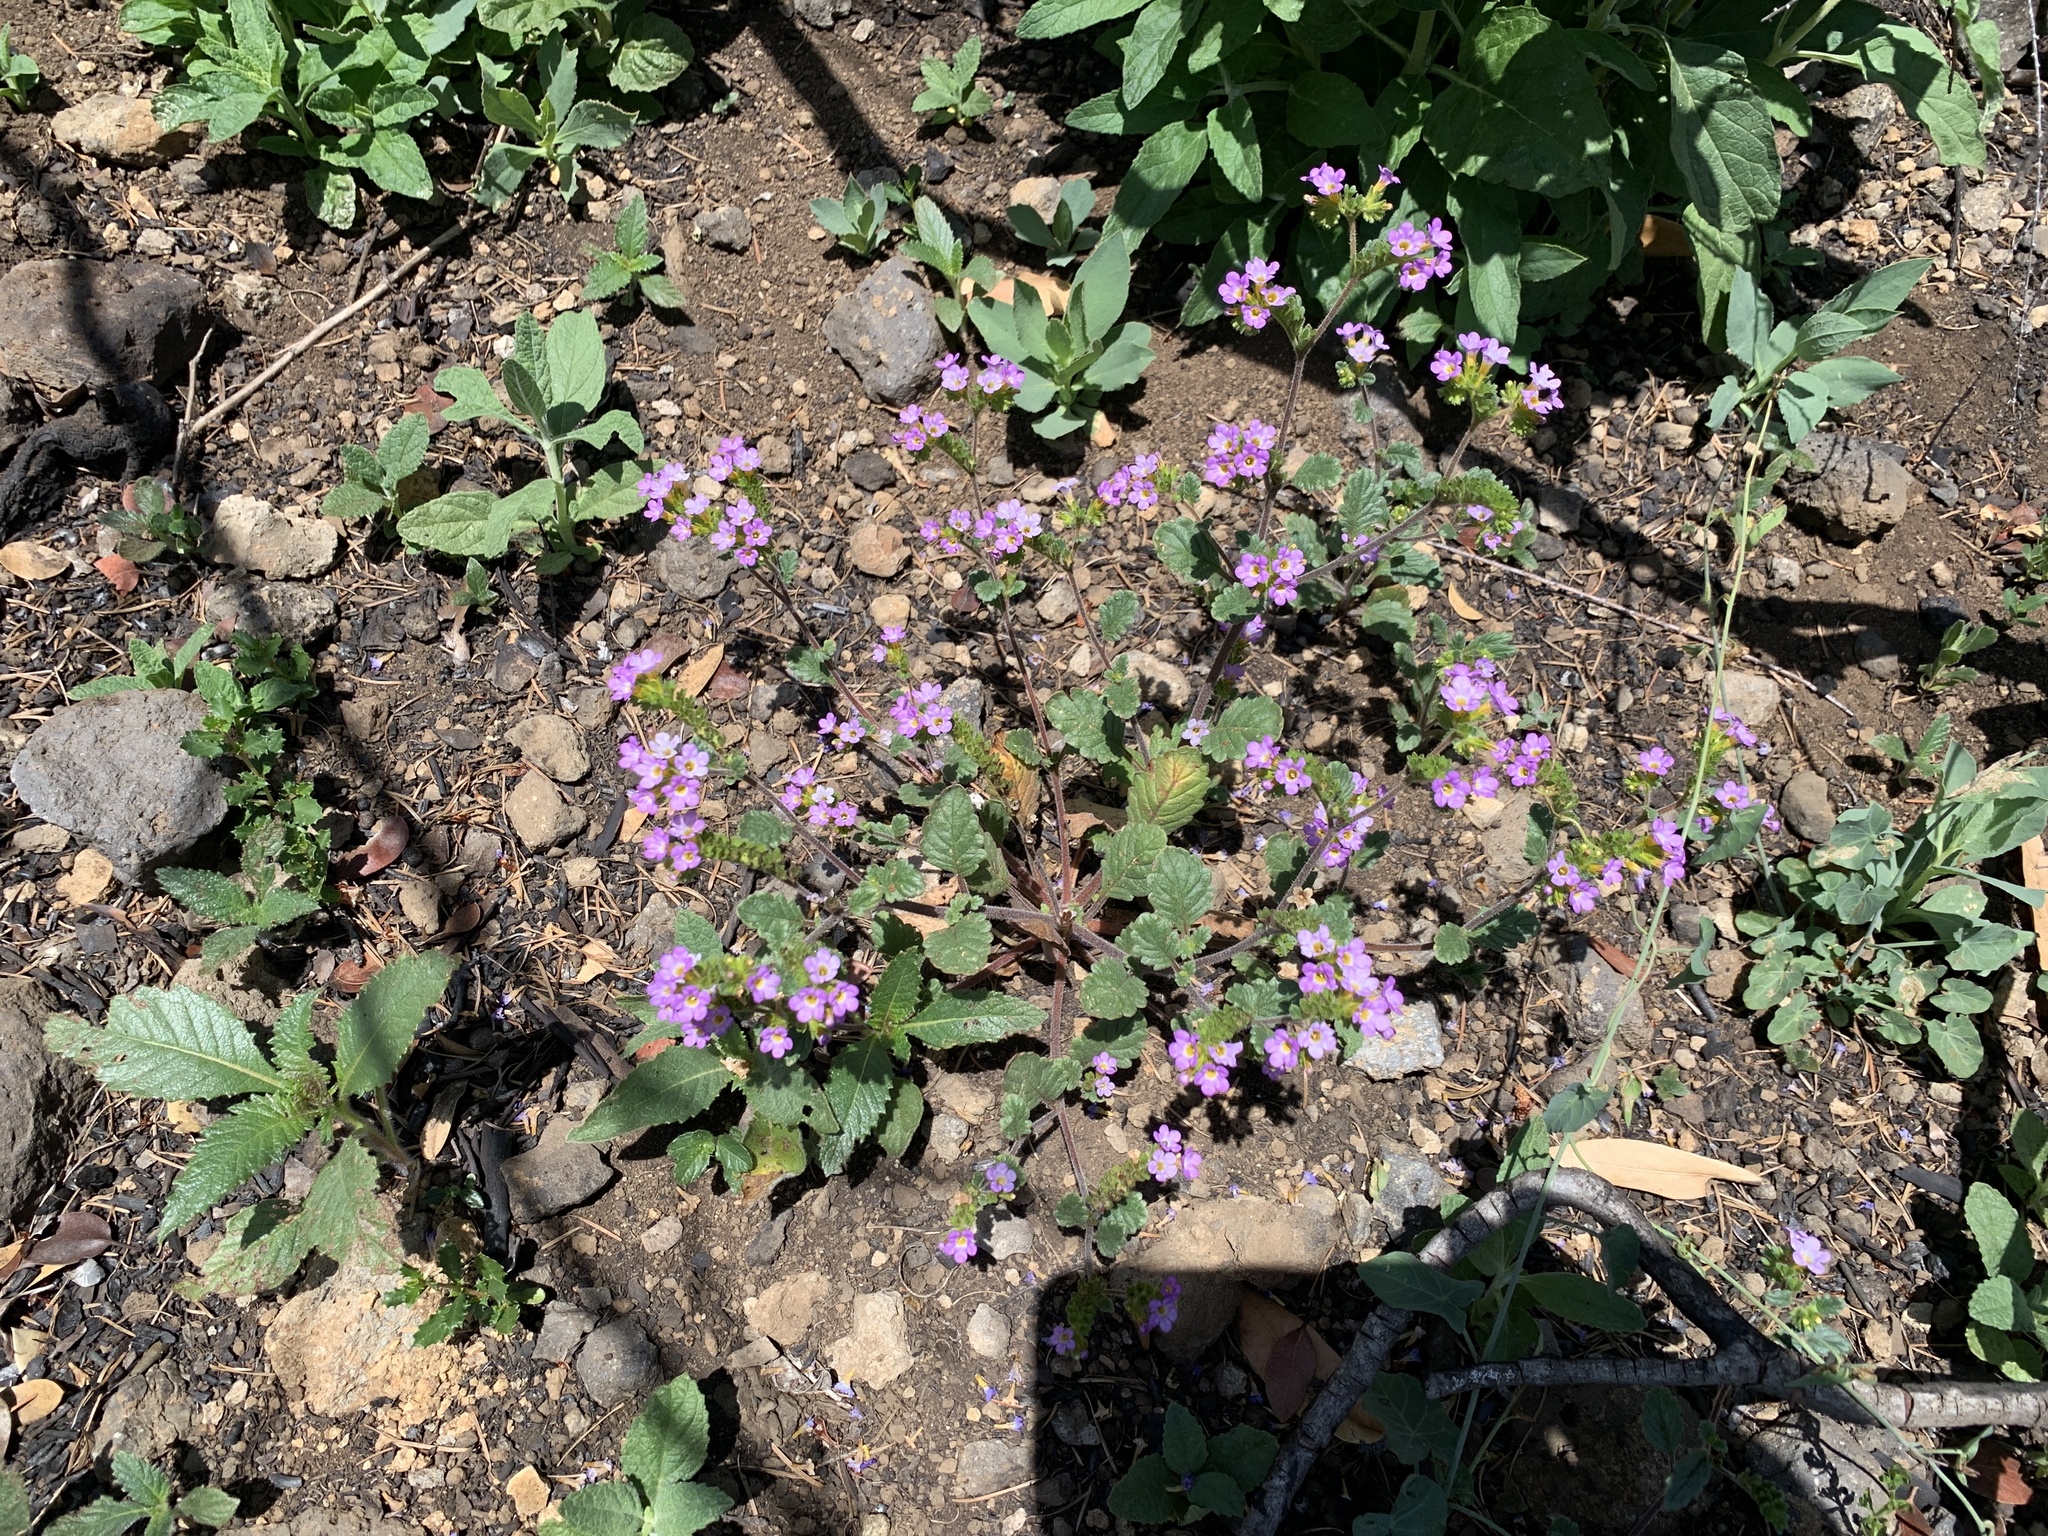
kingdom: Plantae
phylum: Tracheophyta
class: Magnoliopsida
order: Boraginales
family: Hydrophyllaceae
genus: Phacelia
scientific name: Phacelia suaveolens
